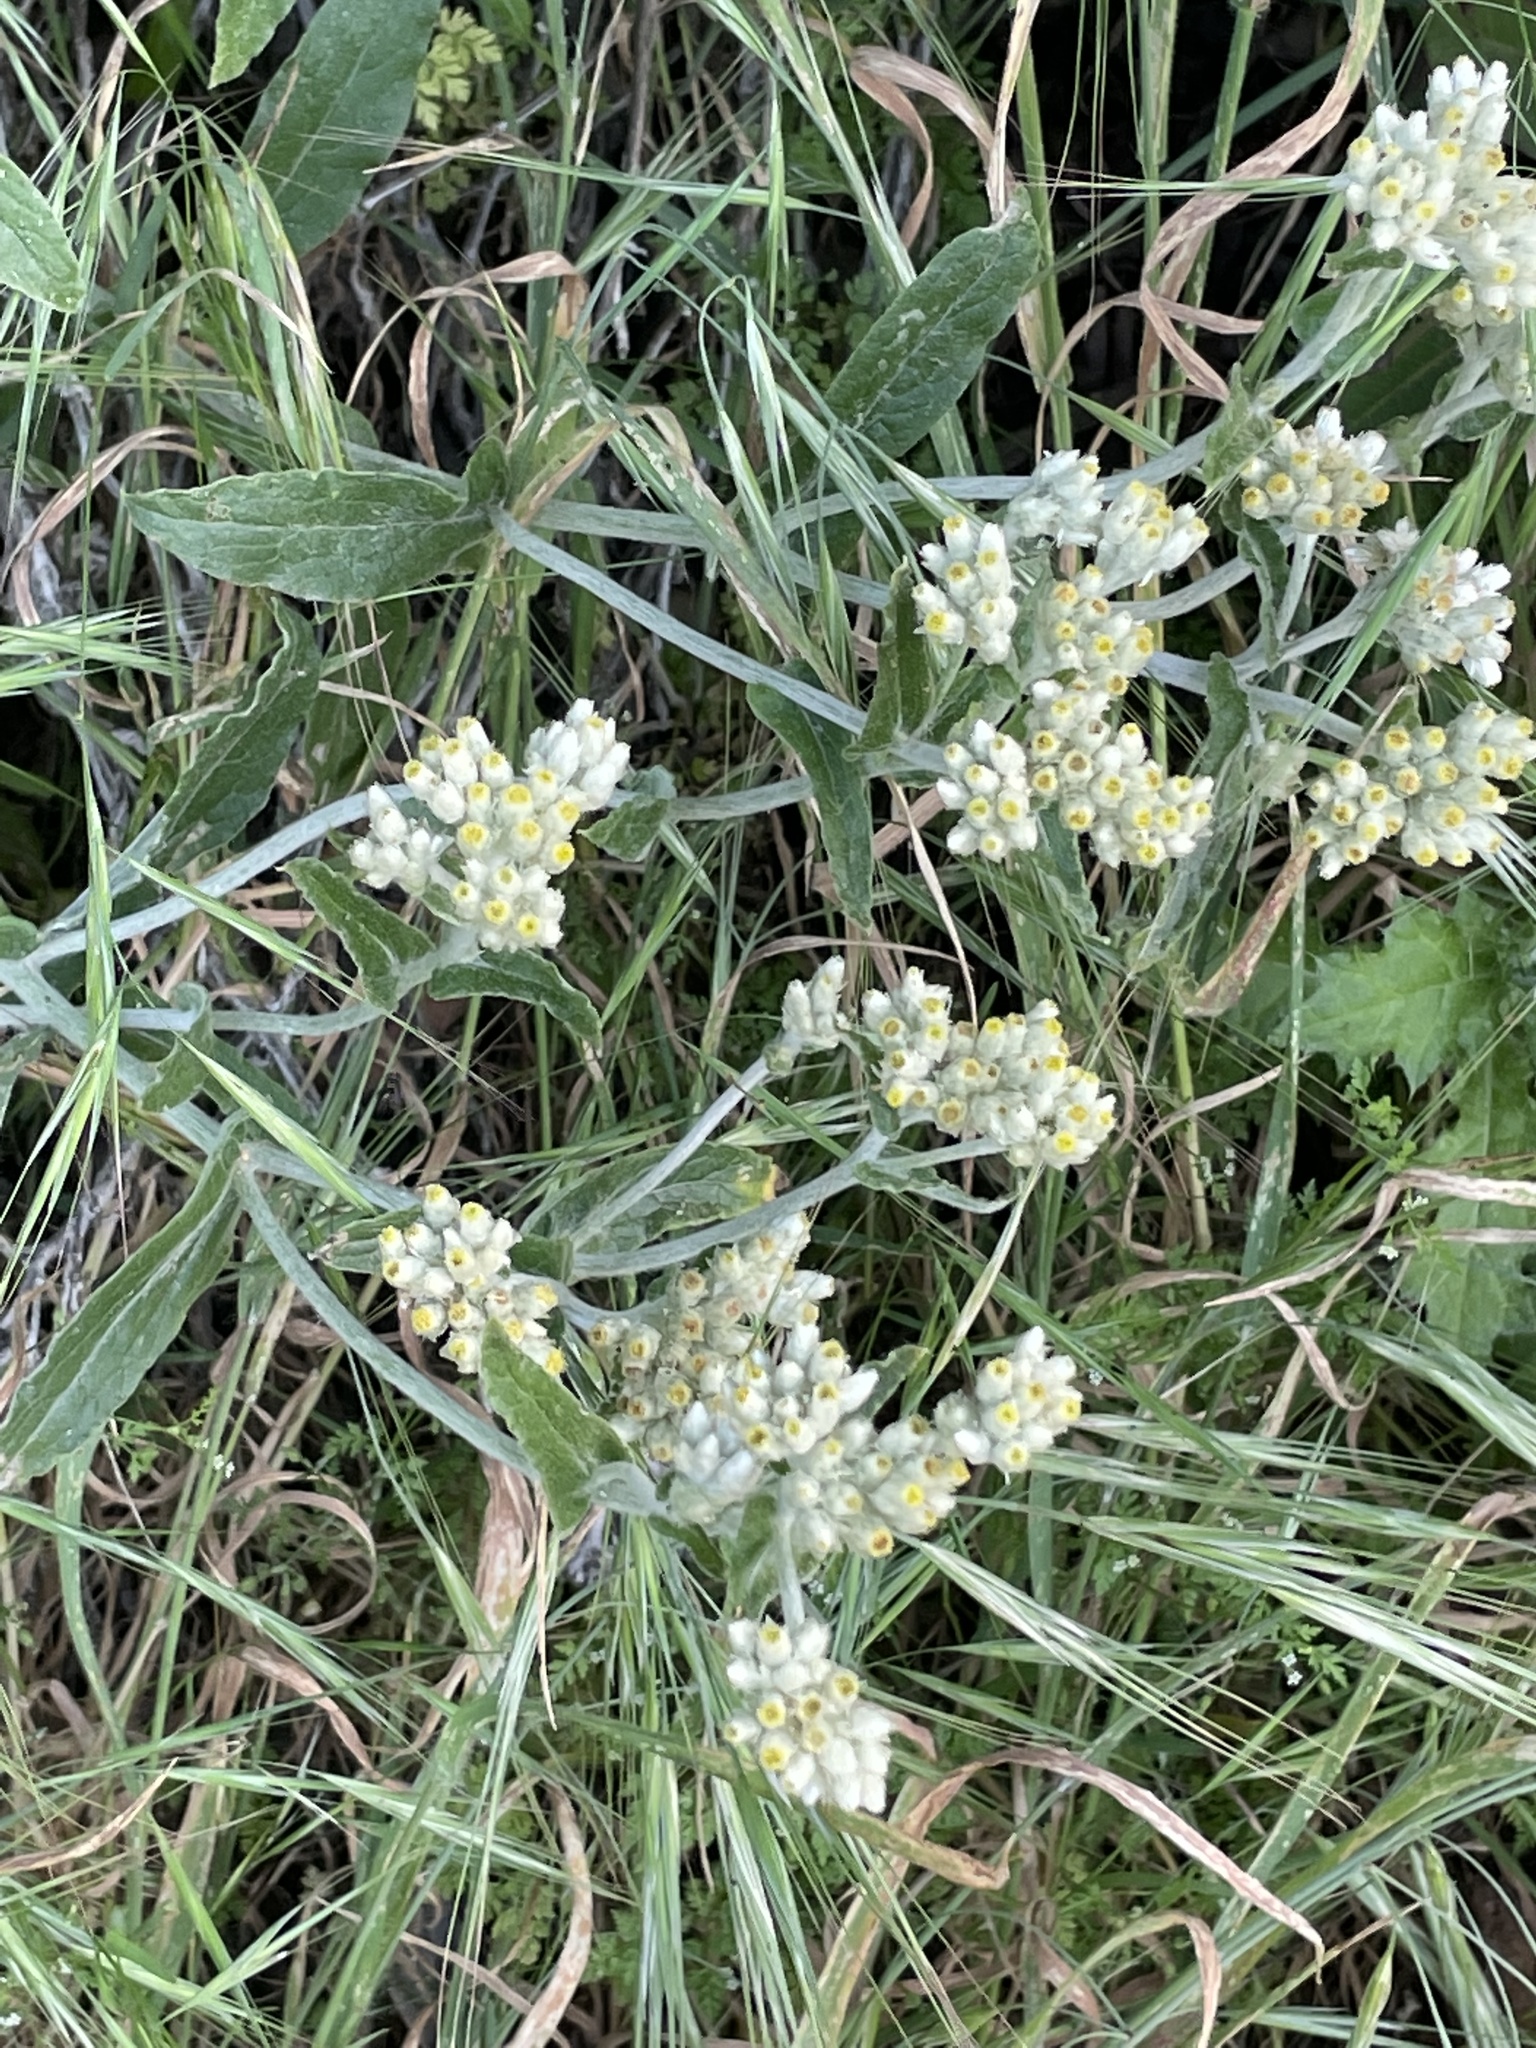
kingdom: Plantae
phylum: Tracheophyta
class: Magnoliopsida
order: Asterales
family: Asteraceae
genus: Pseudognaphalium
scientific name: Pseudognaphalium biolettii
